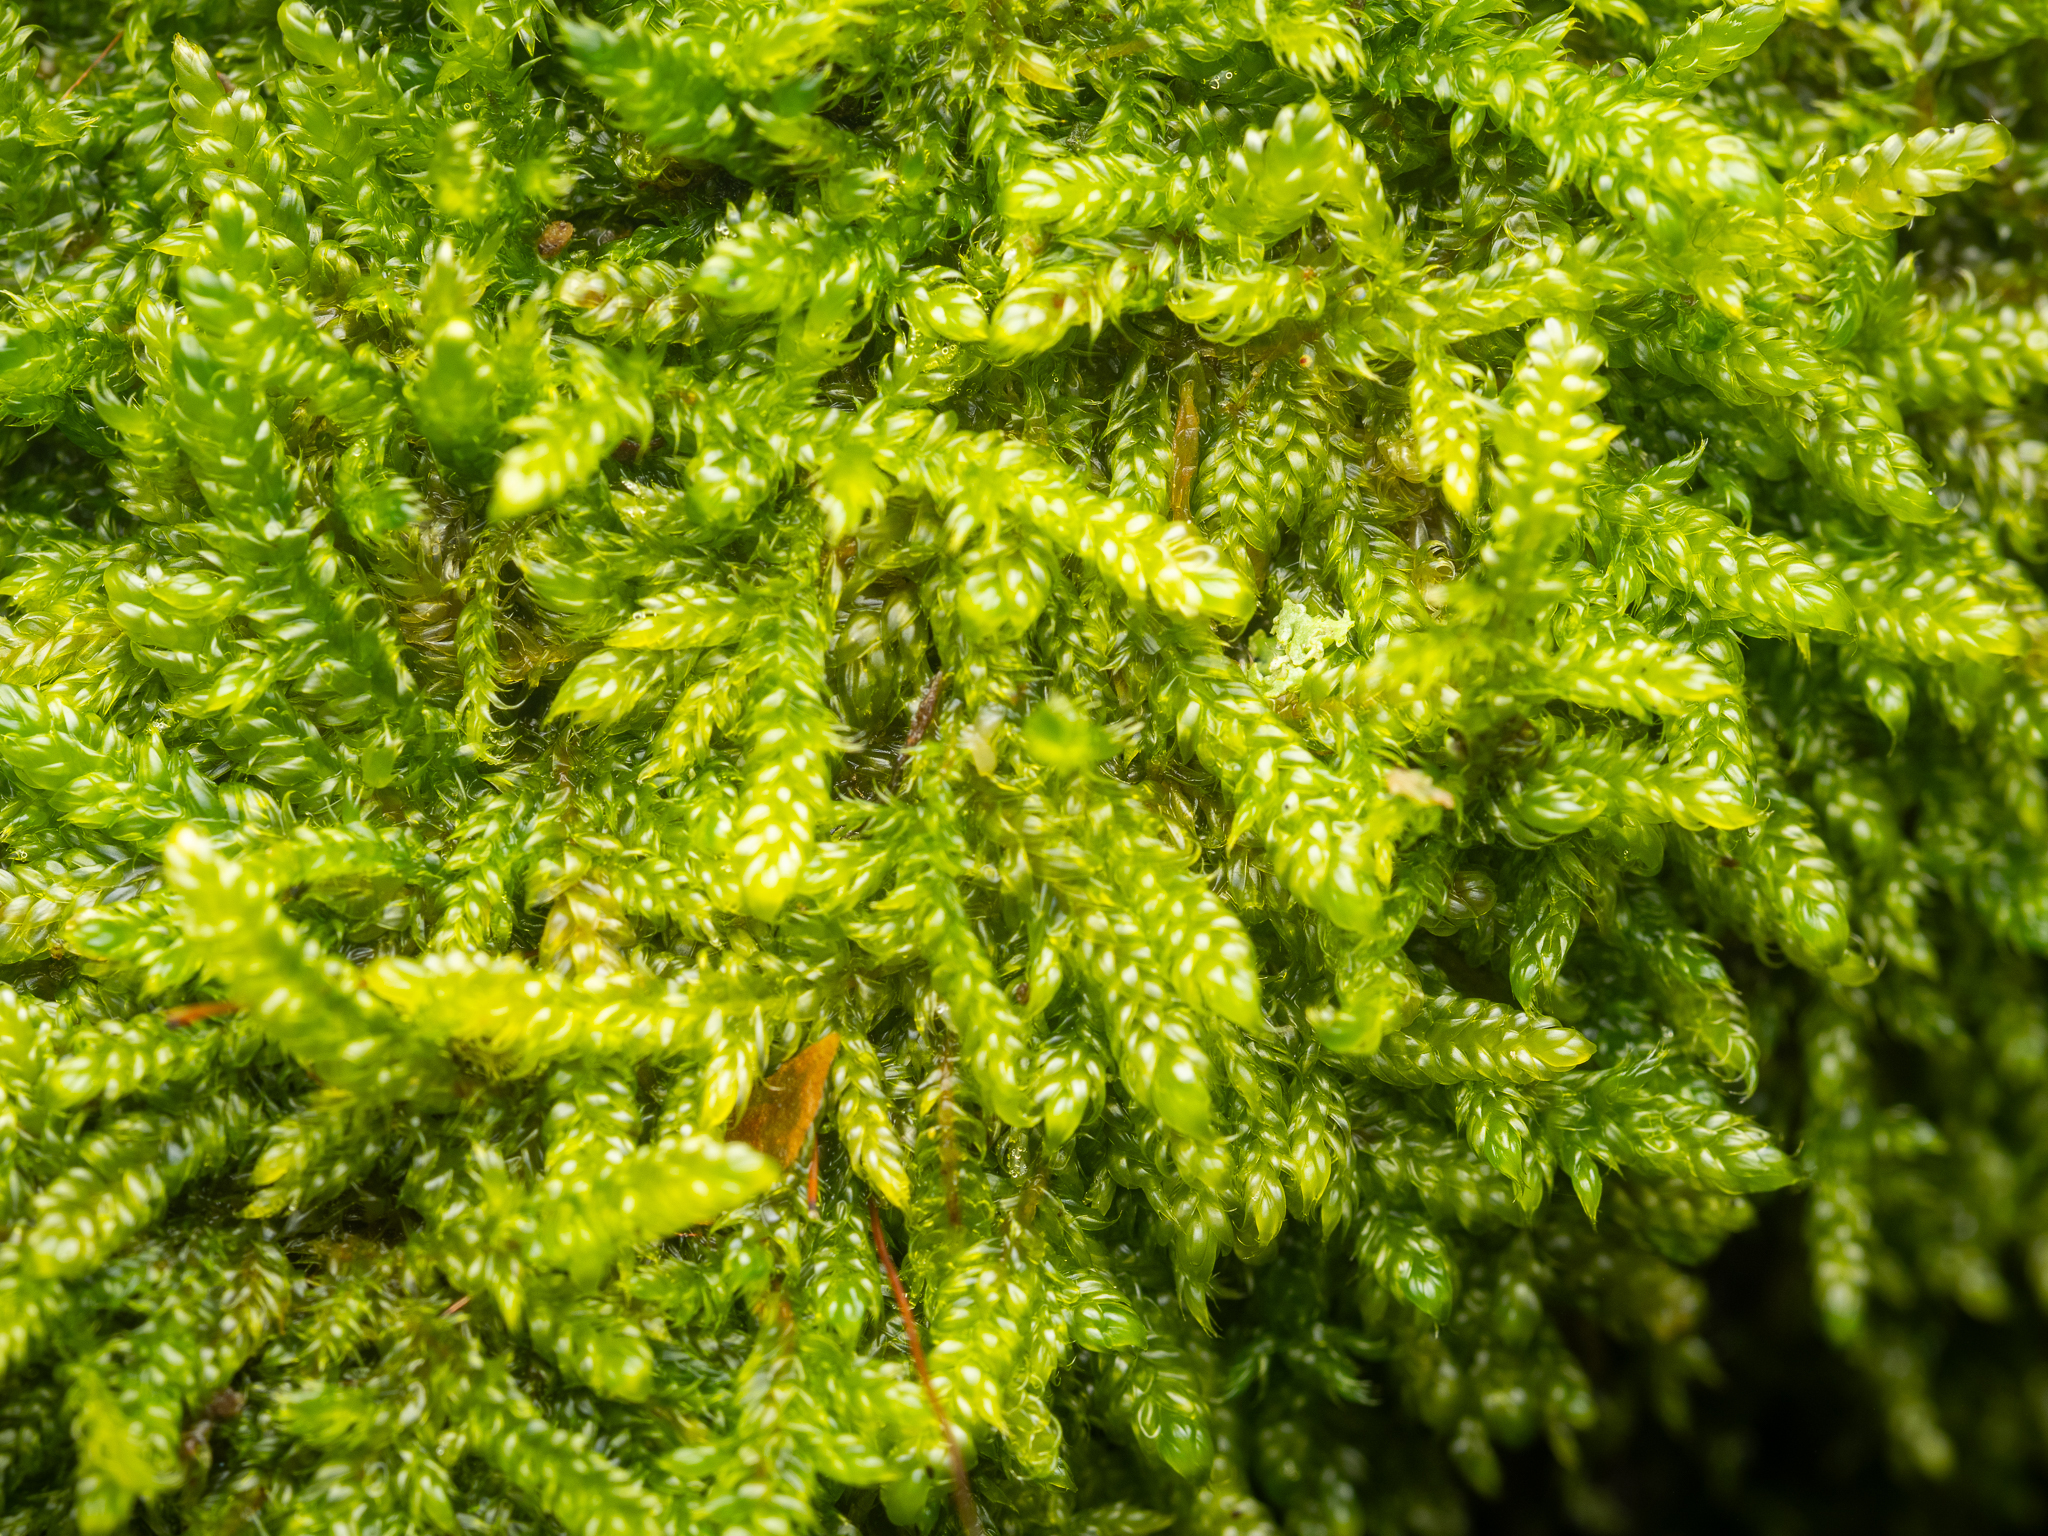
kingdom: Plantae
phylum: Bryophyta
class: Bryopsida
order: Hypnales
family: Hypnaceae
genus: Hypnum
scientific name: Hypnum cupressiforme
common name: Cypress-leaved plait-moss
